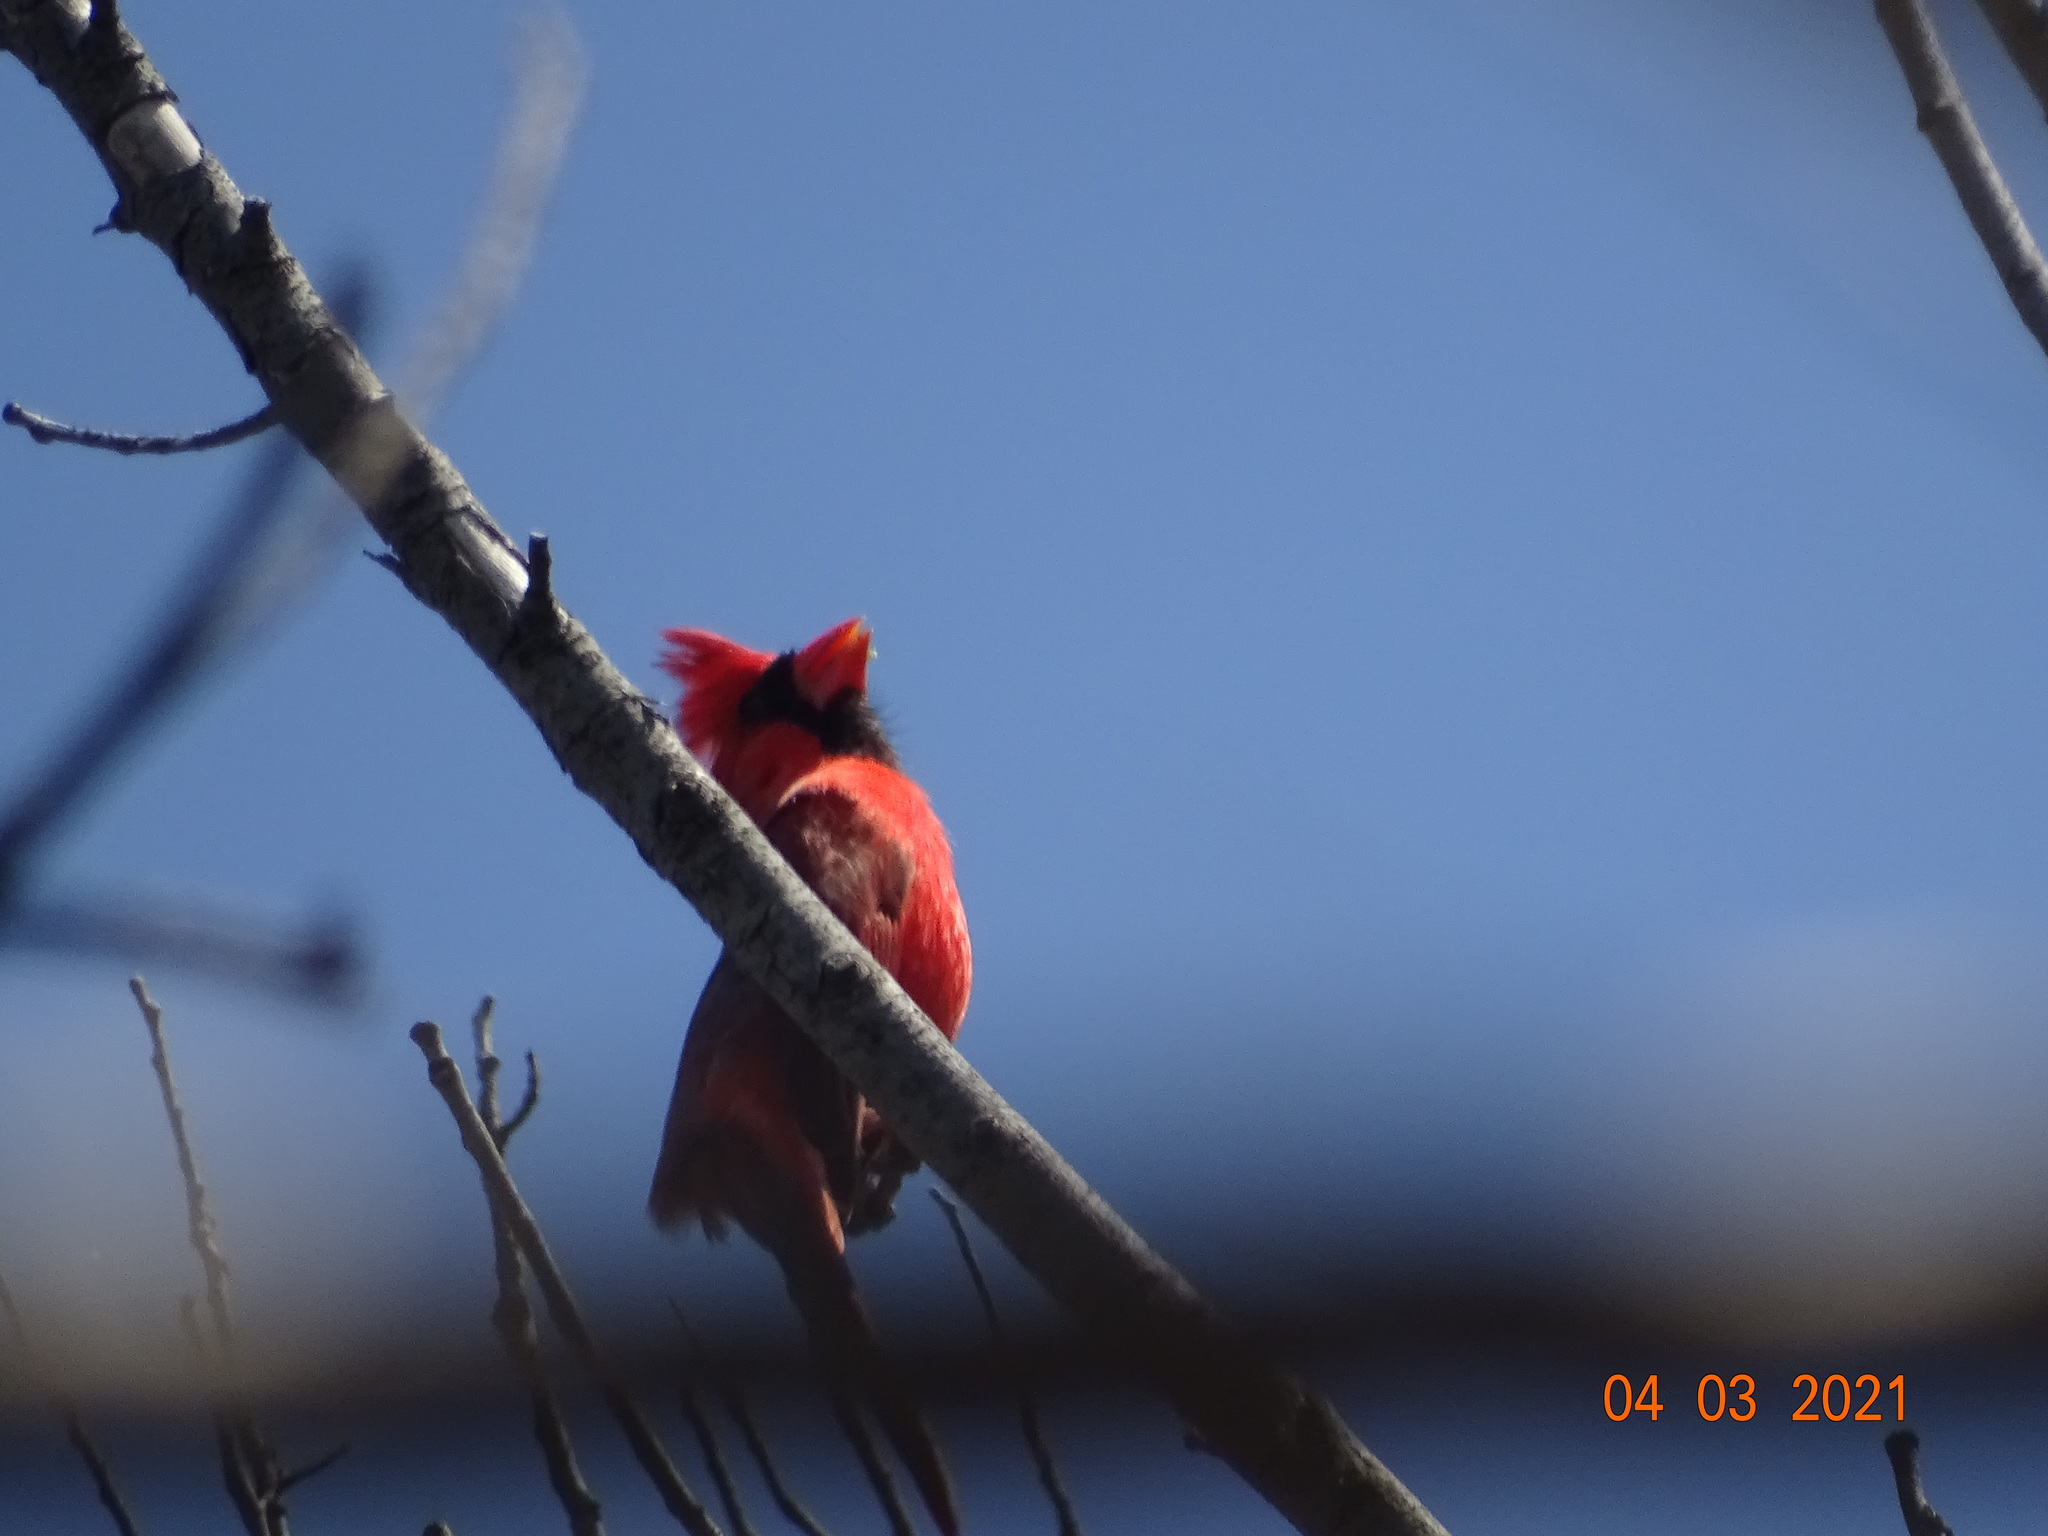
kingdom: Animalia
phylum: Chordata
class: Aves
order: Passeriformes
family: Cardinalidae
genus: Cardinalis
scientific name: Cardinalis cardinalis
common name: Northern cardinal
